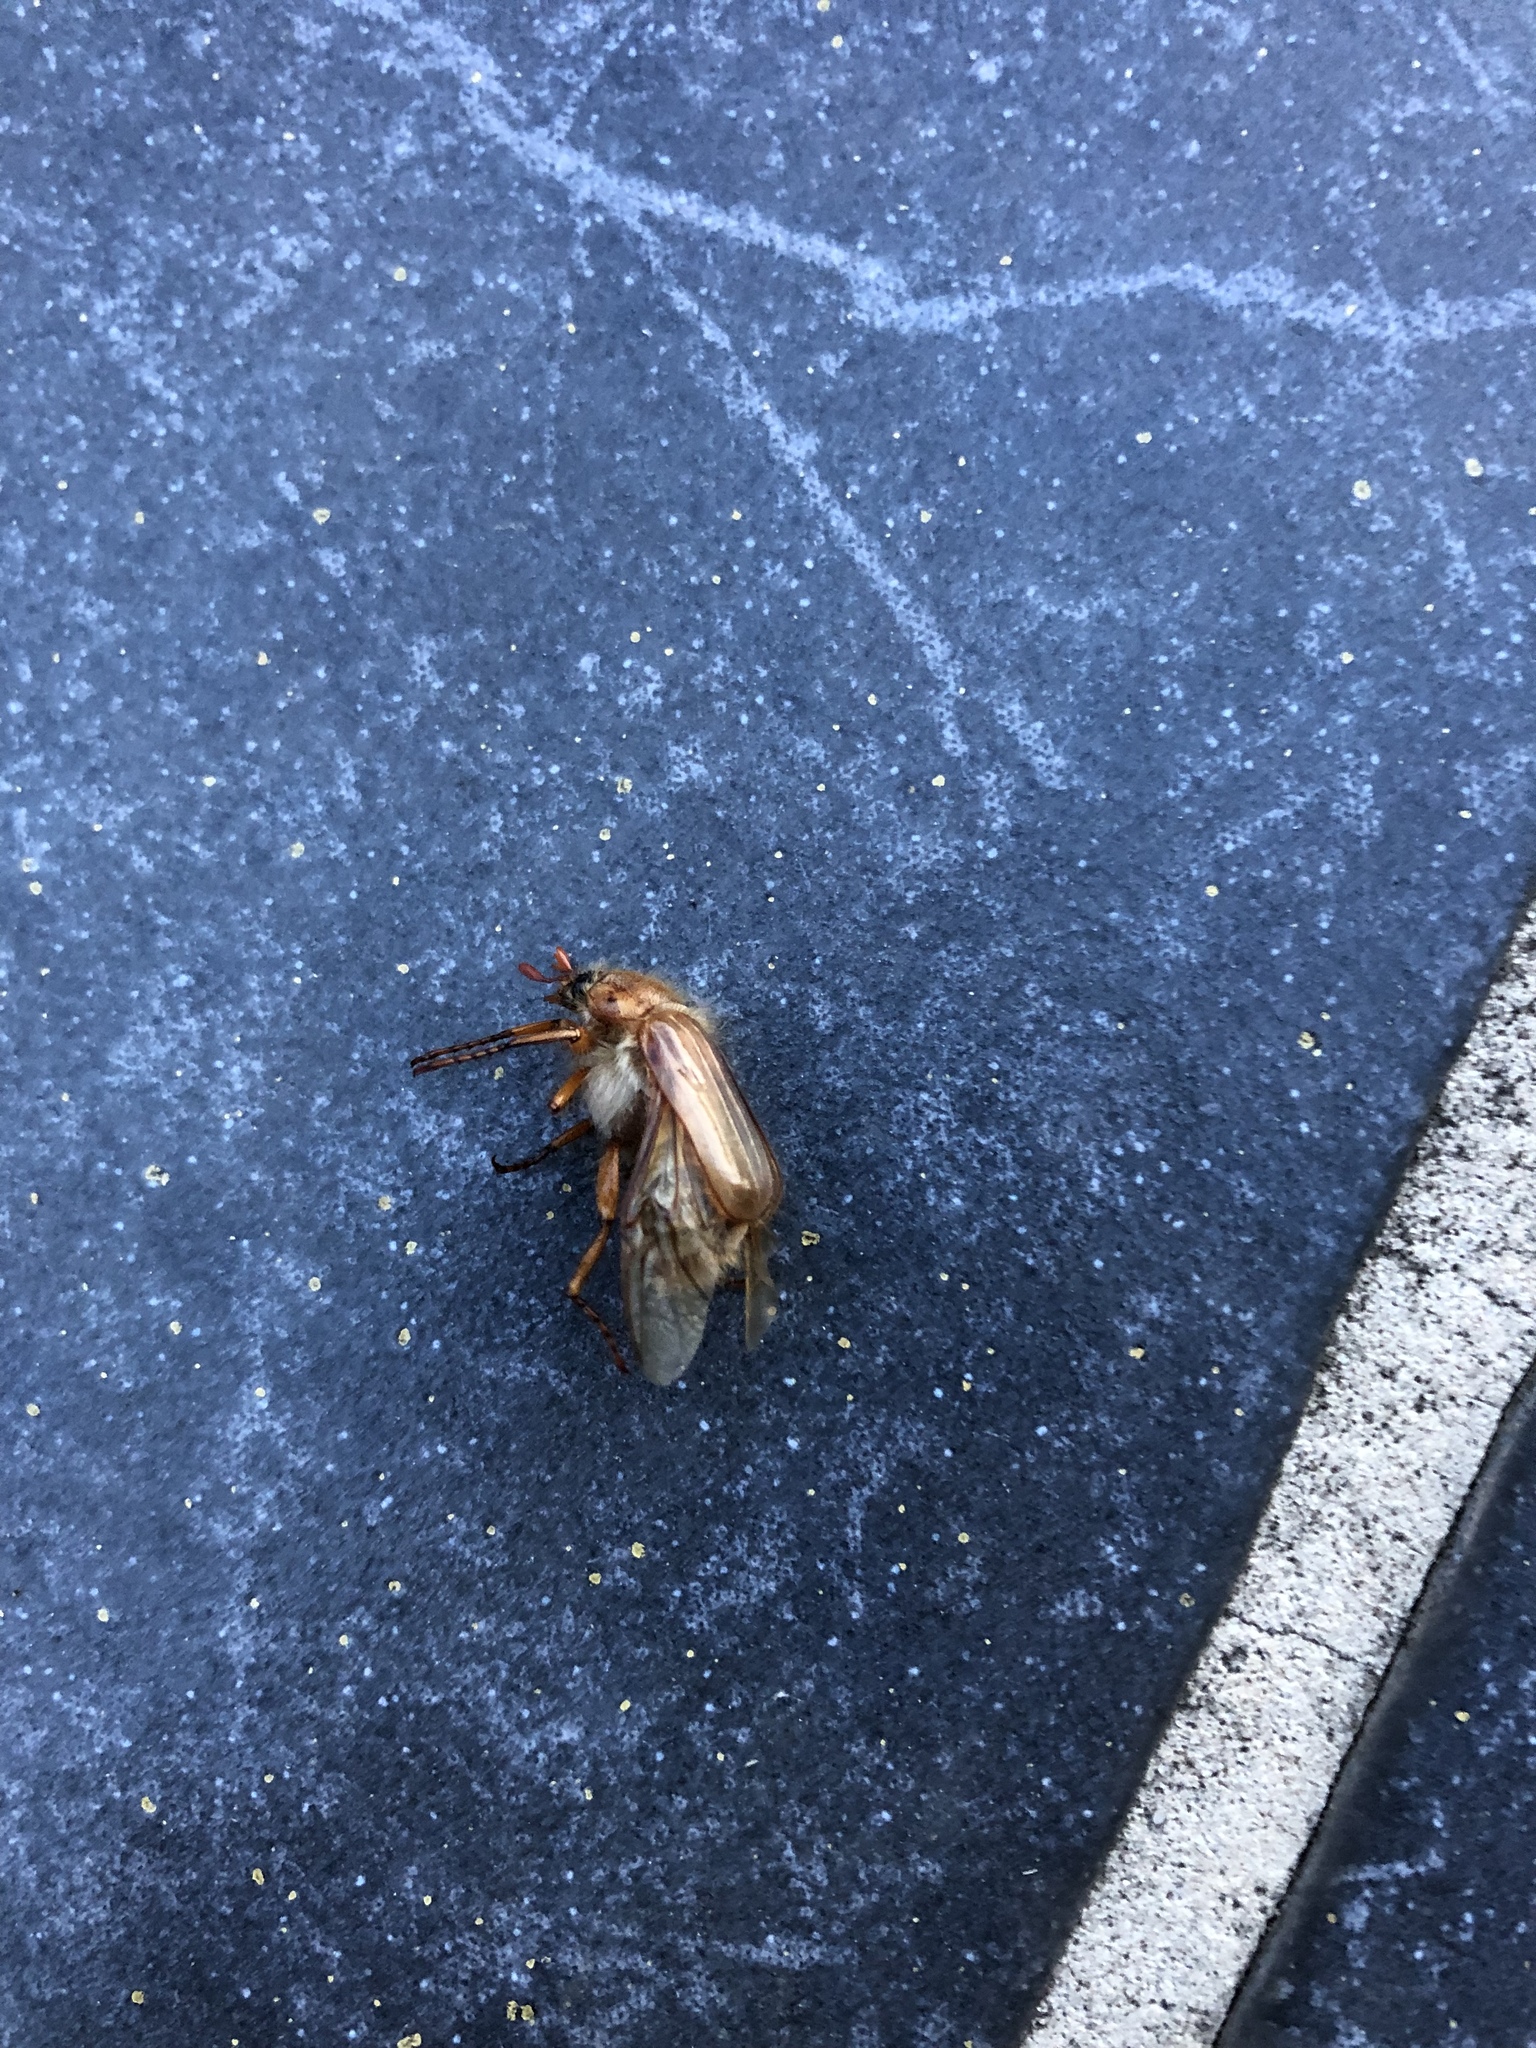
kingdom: Animalia
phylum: Arthropoda
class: Insecta
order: Coleoptera
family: Scarabaeidae
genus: Amphimallon
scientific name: Amphimallon solstitiale
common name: Summer chafer
